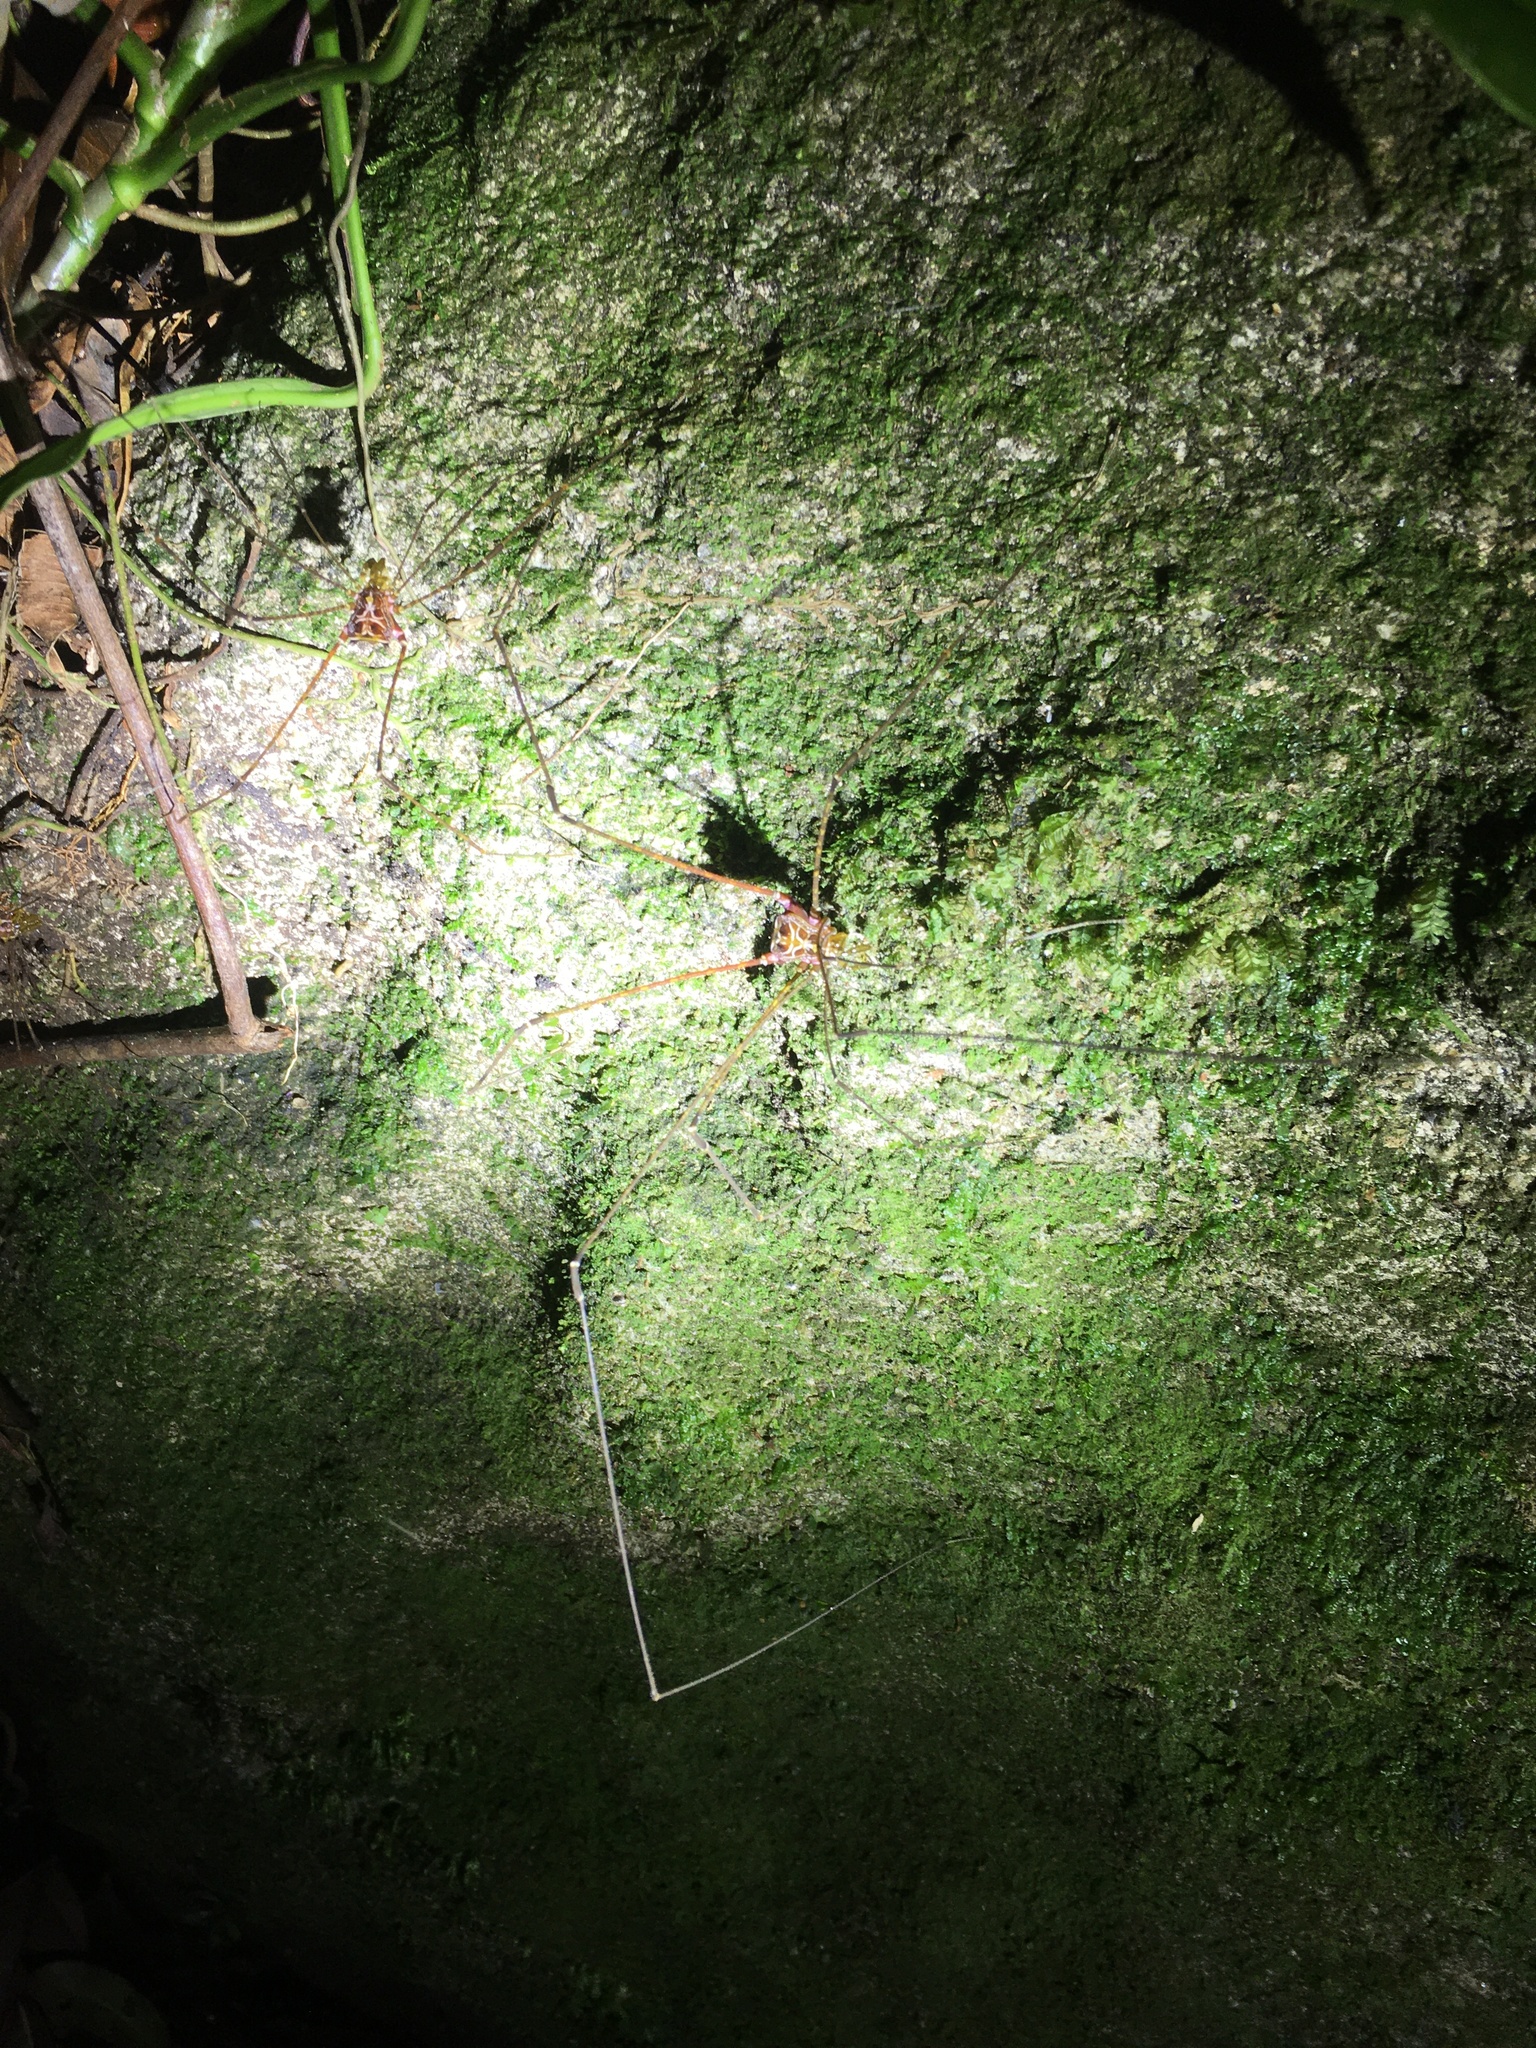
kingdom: Animalia
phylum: Arthropoda
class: Arachnida
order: Opiliones
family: Gonyleptidae
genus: Mitogoniella
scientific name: Mitogoniella modesta
